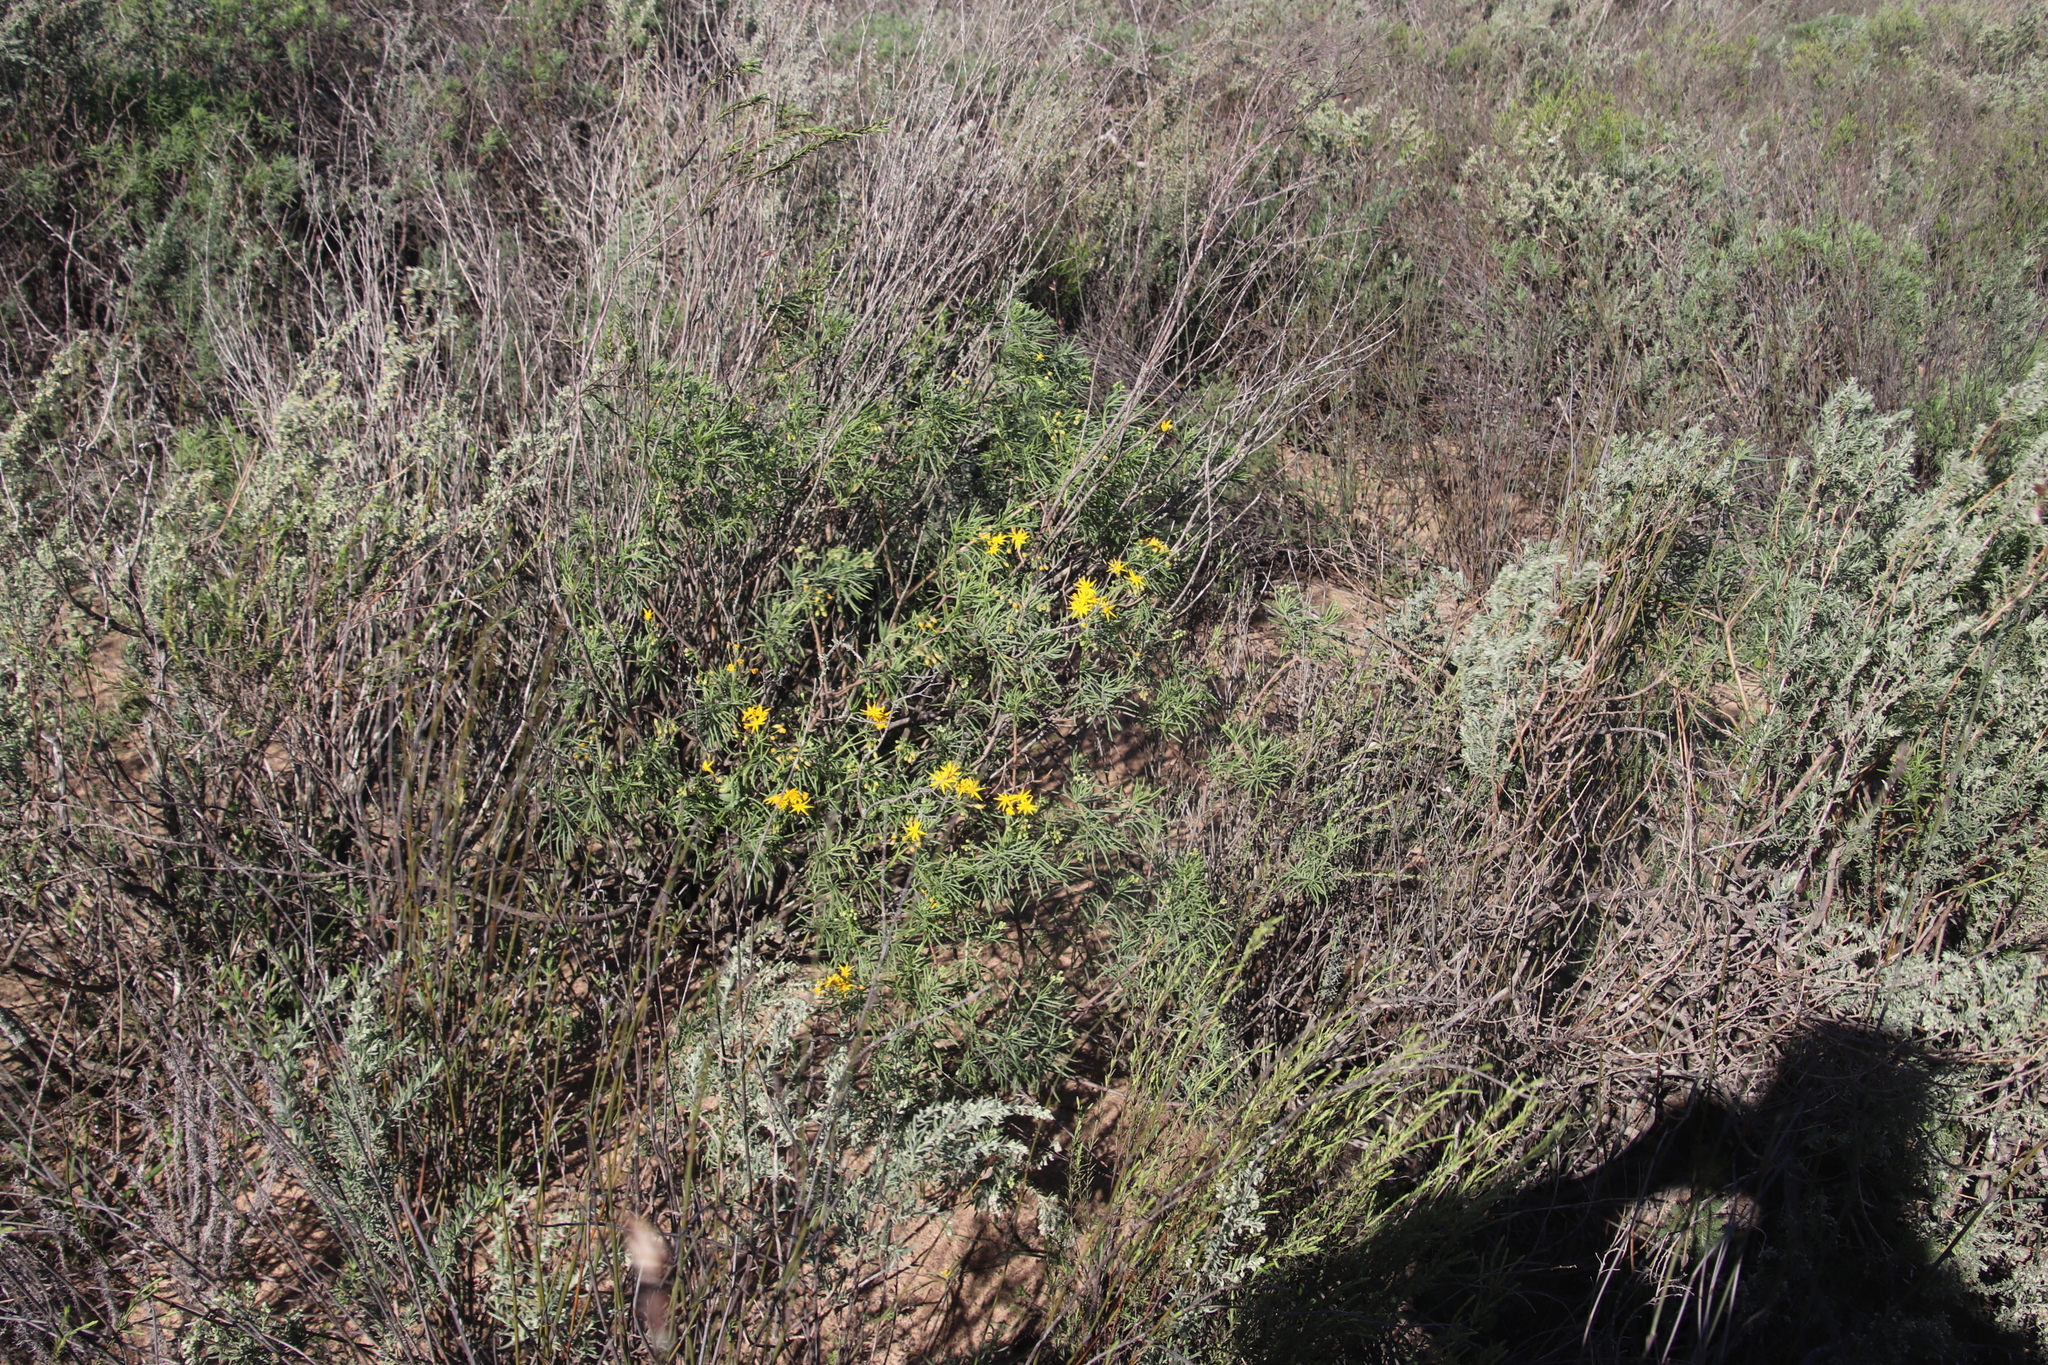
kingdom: Plantae
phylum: Tracheophyta
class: Magnoliopsida
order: Asterales
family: Asteraceae
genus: Crassothonna
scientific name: Crassothonna cylindrica
